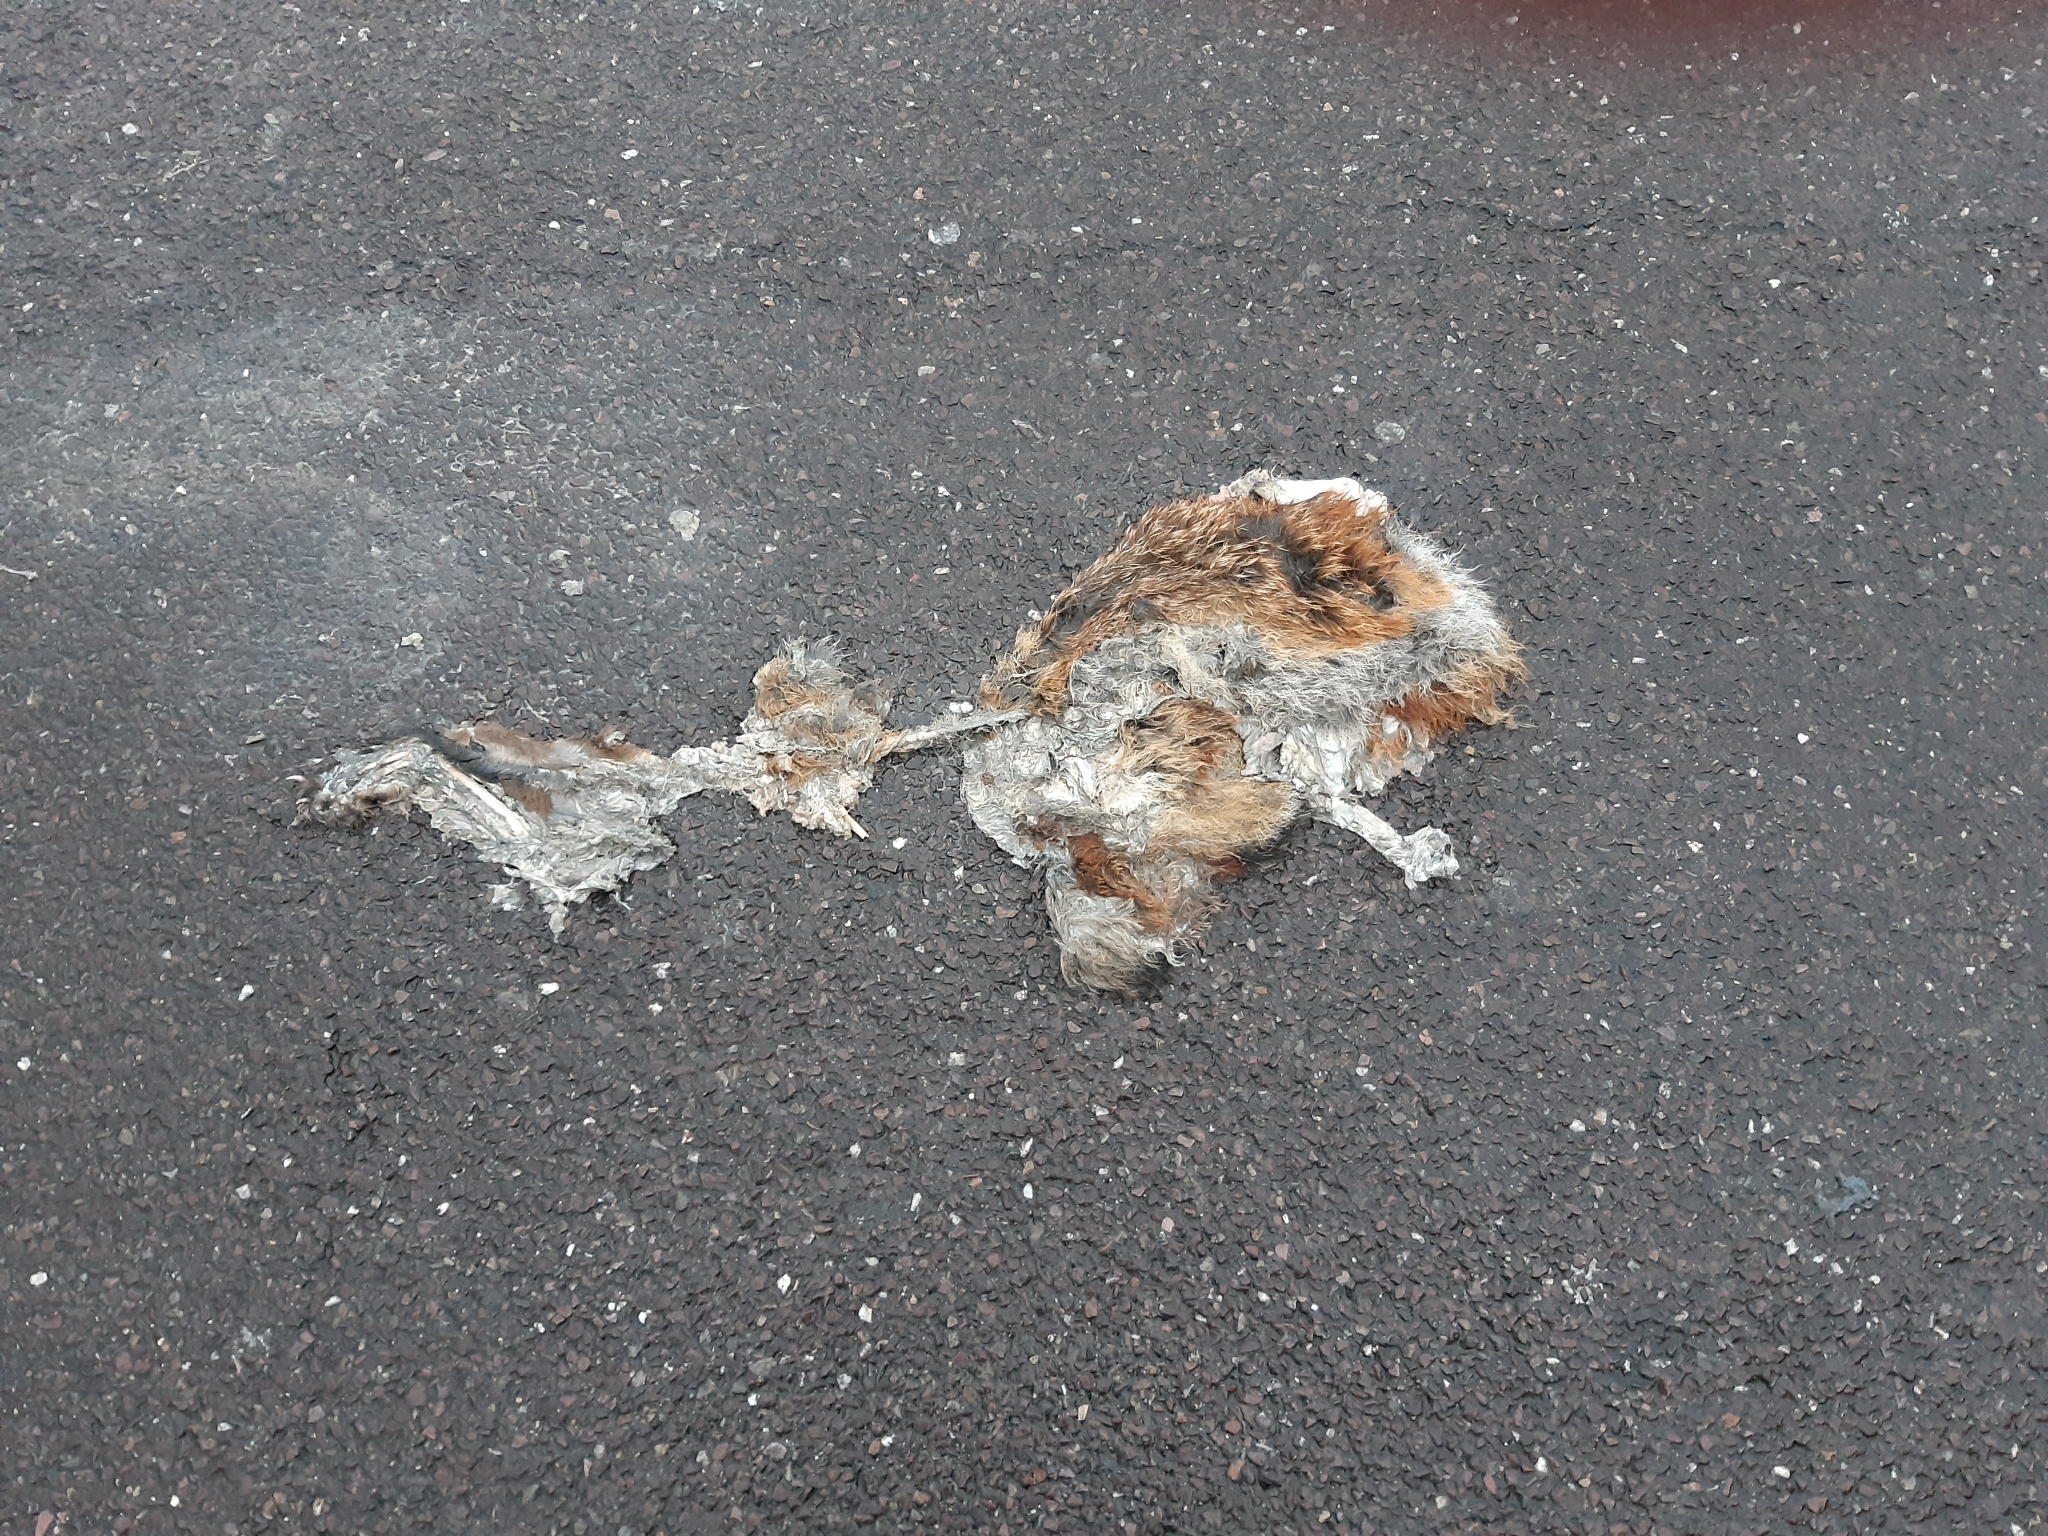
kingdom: Animalia
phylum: Chordata
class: Mammalia
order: Carnivora
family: Canidae
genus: Vulpes
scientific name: Vulpes vulpes
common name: Red fox
